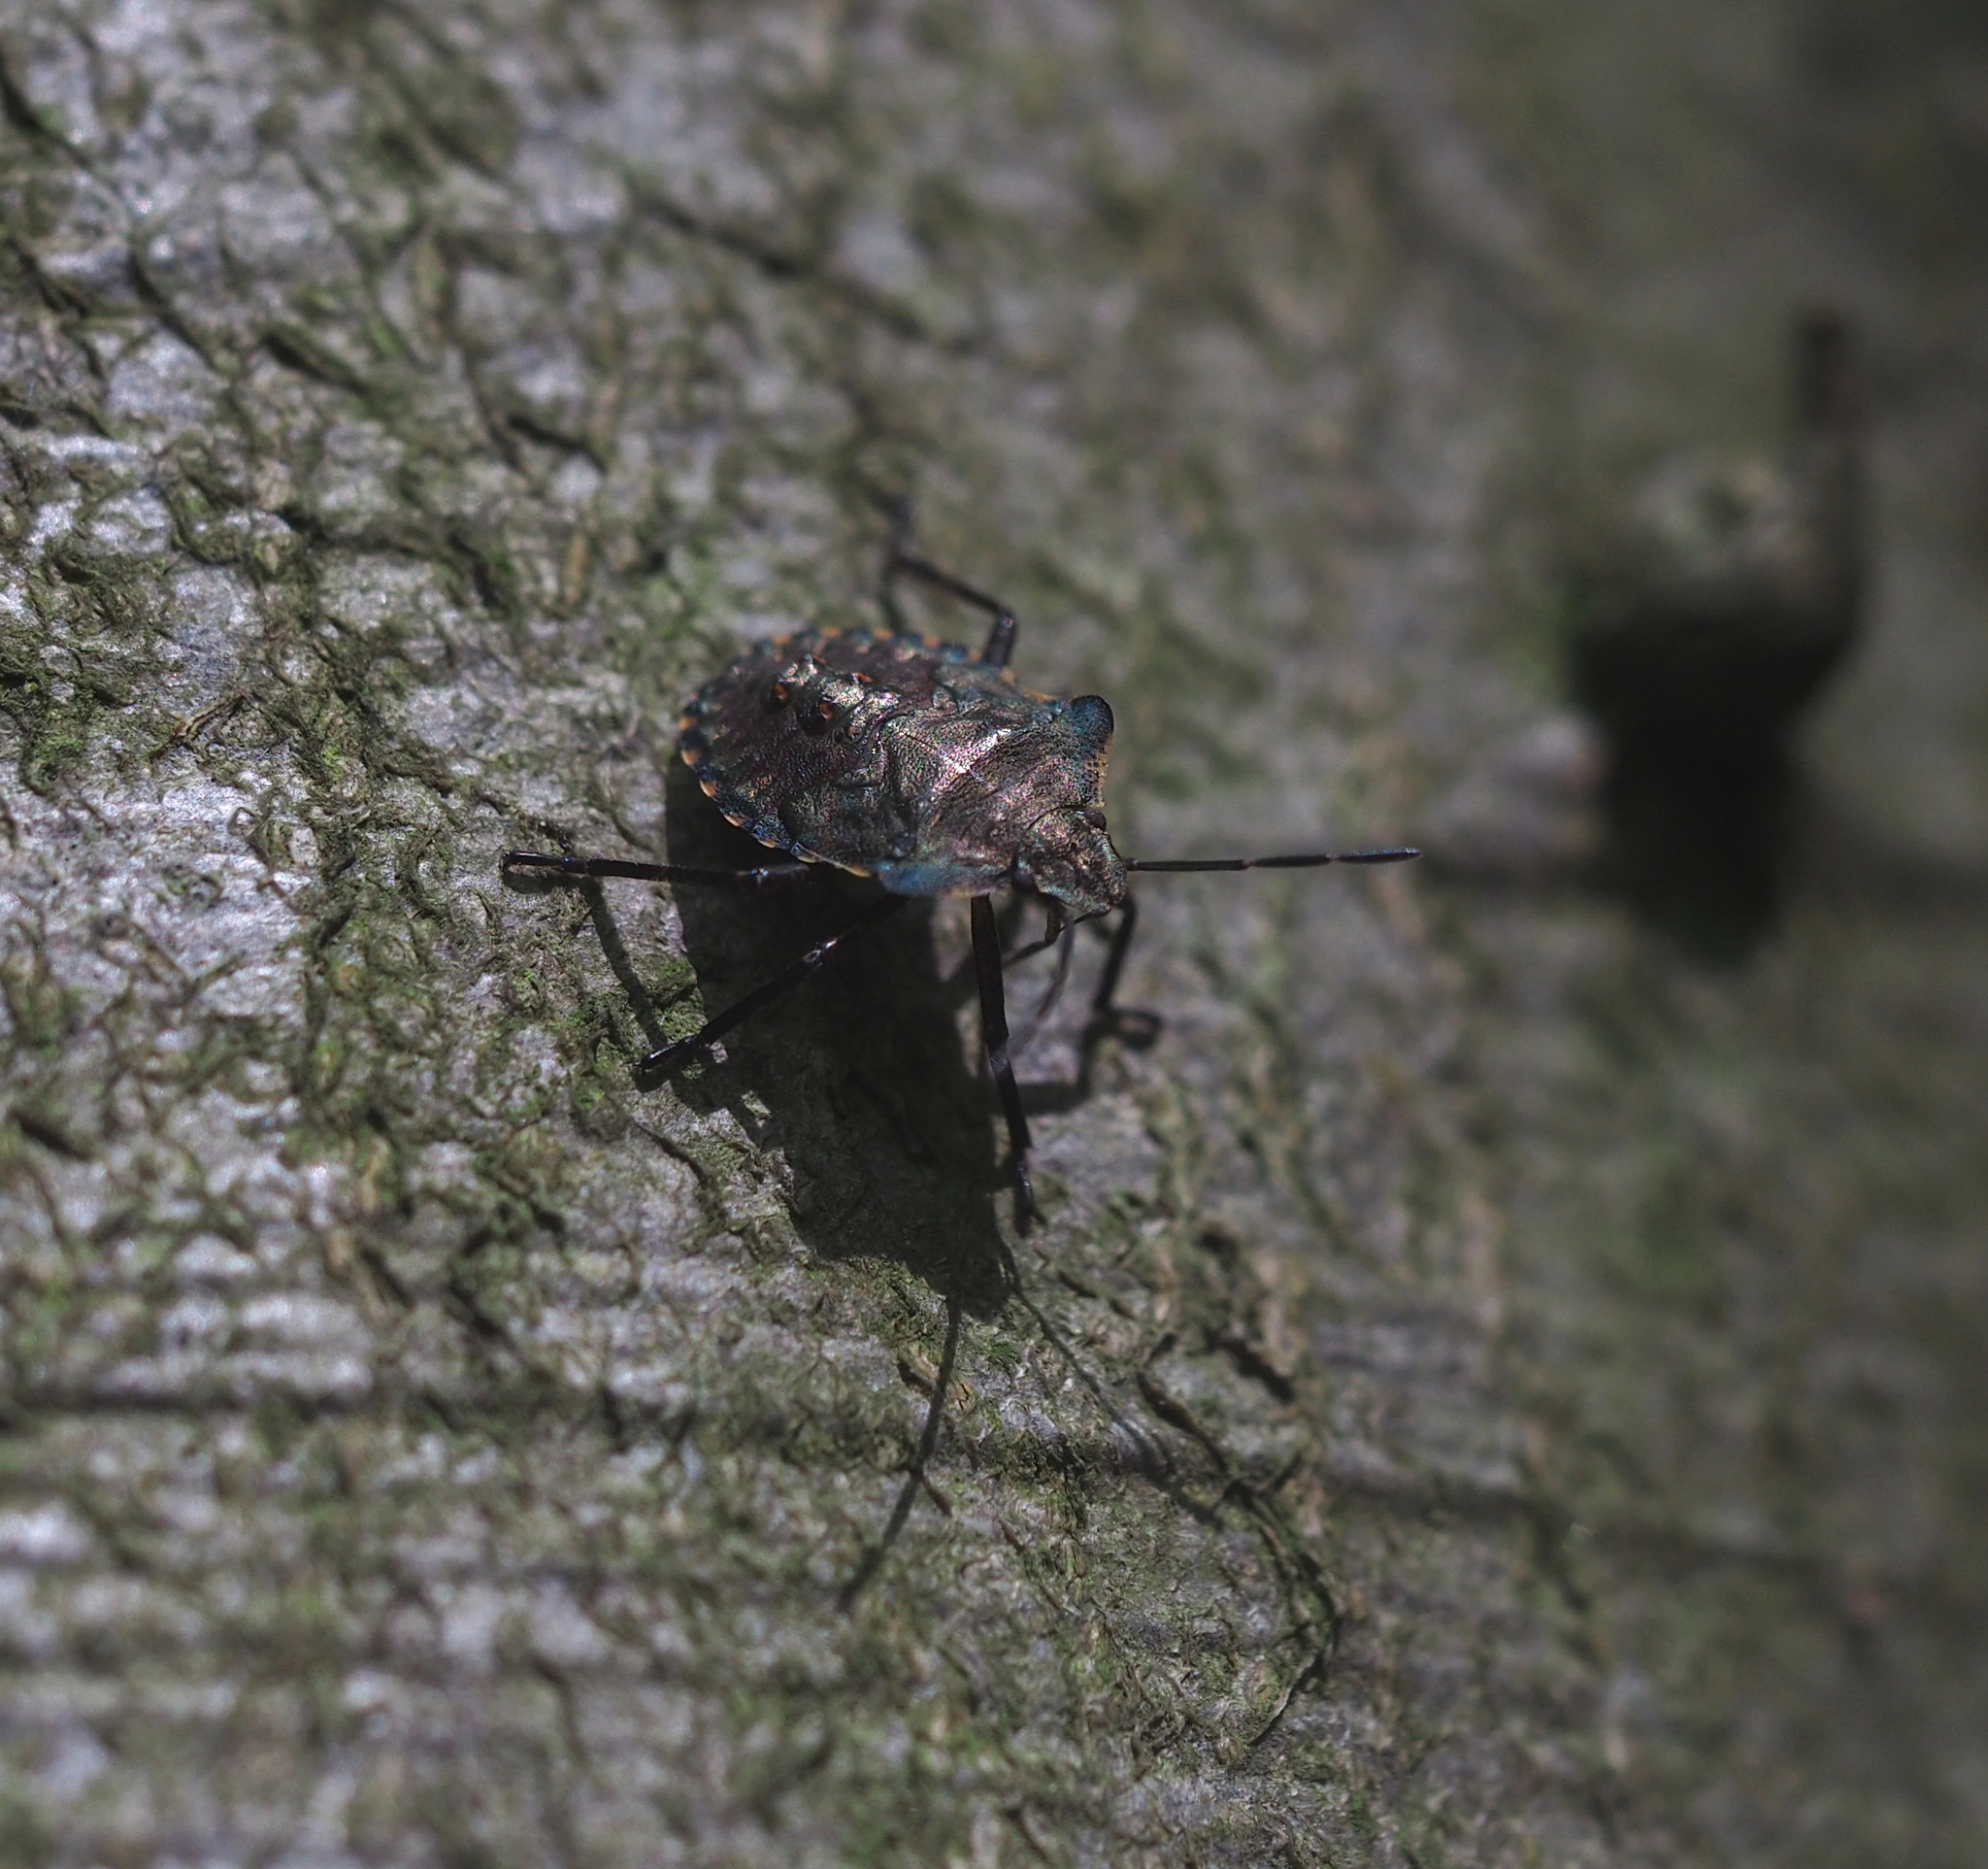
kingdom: Animalia
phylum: Arthropoda
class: Insecta
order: Hemiptera
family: Pentatomidae
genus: Pentatoma
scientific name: Pentatoma rufipes
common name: Forest bug
